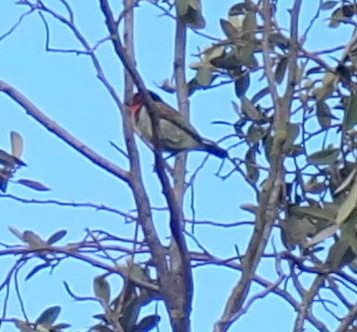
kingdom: Animalia
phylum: Chordata
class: Aves
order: Piciformes
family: Lybiidae
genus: Lybius
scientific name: Lybius torquatus
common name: Black-collared barbet
